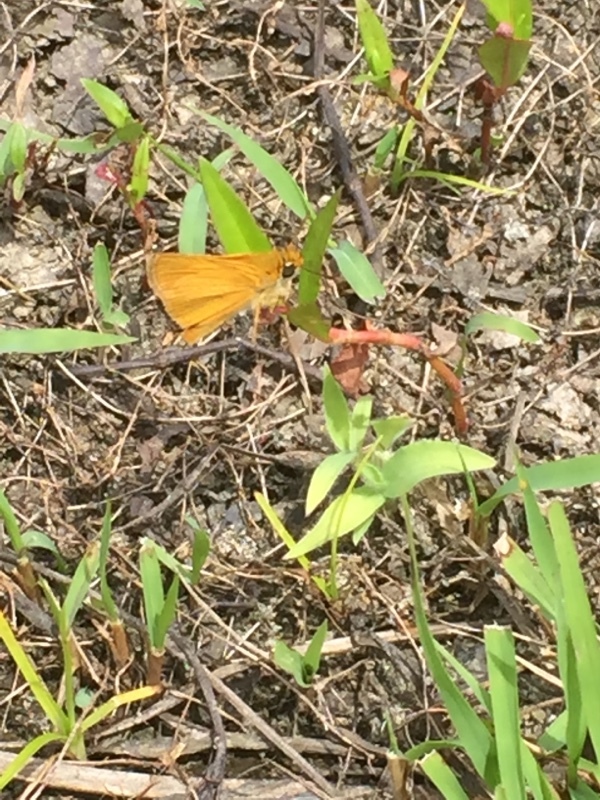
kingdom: Animalia
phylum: Arthropoda
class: Insecta
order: Lepidoptera
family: Hesperiidae
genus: Thymelicus
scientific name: Thymelicus acteon
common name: Lulworth skipper
